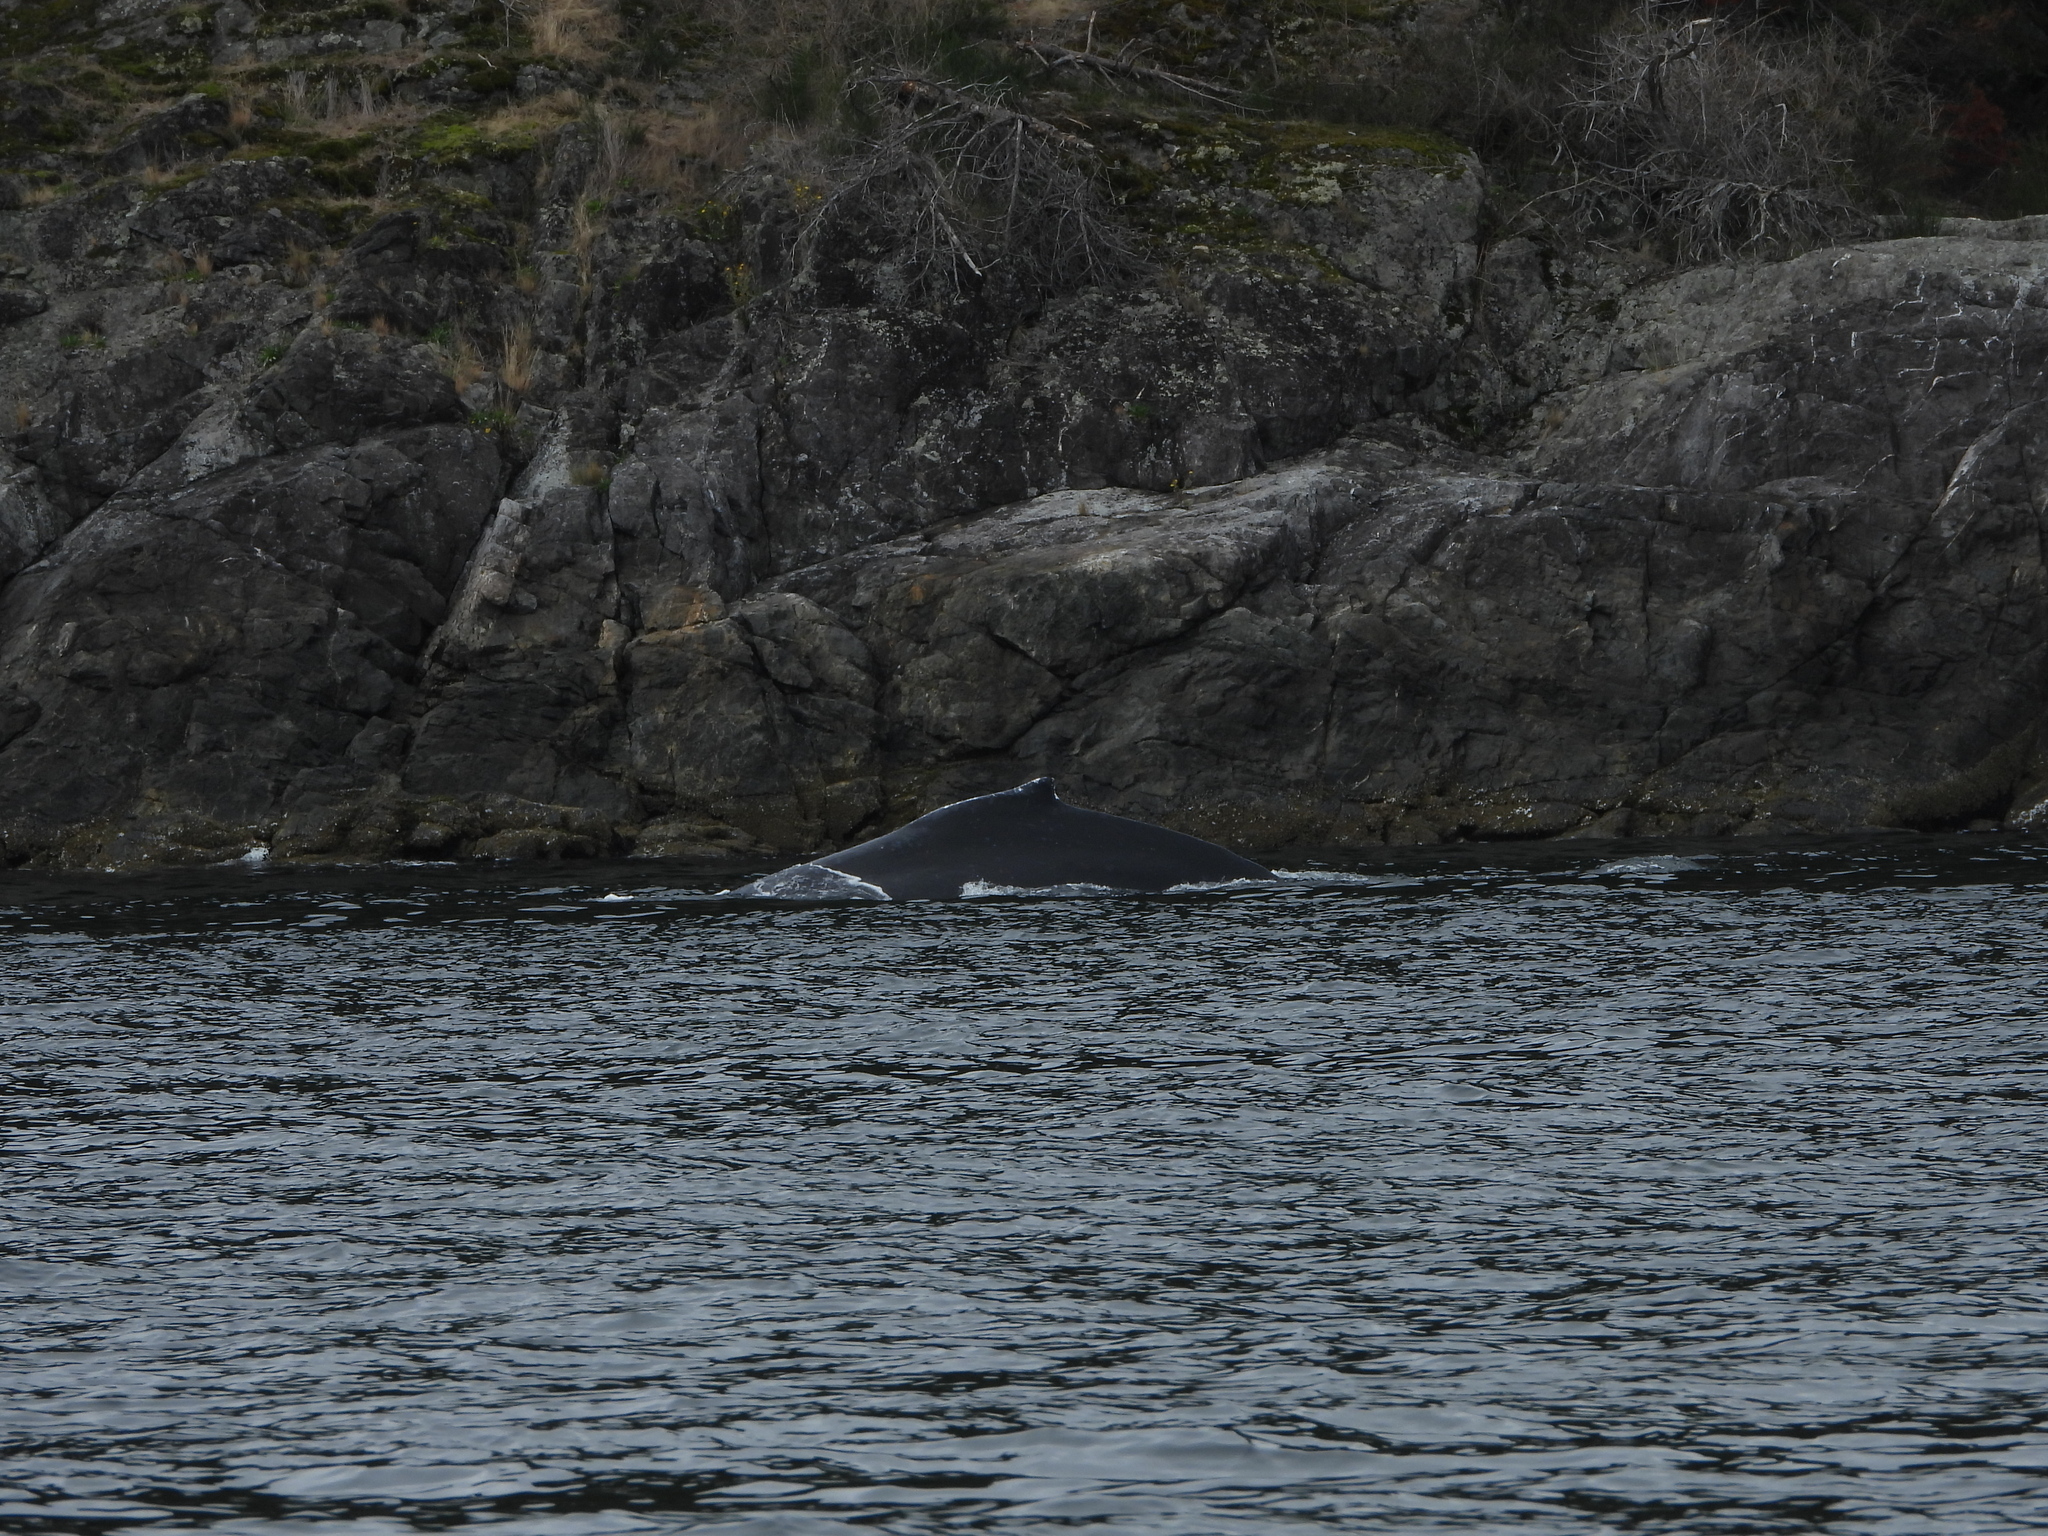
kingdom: Animalia
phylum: Chordata
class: Mammalia
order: Cetacea
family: Balaenopteridae
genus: Megaptera
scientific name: Megaptera novaeangliae
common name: Humpback whale
